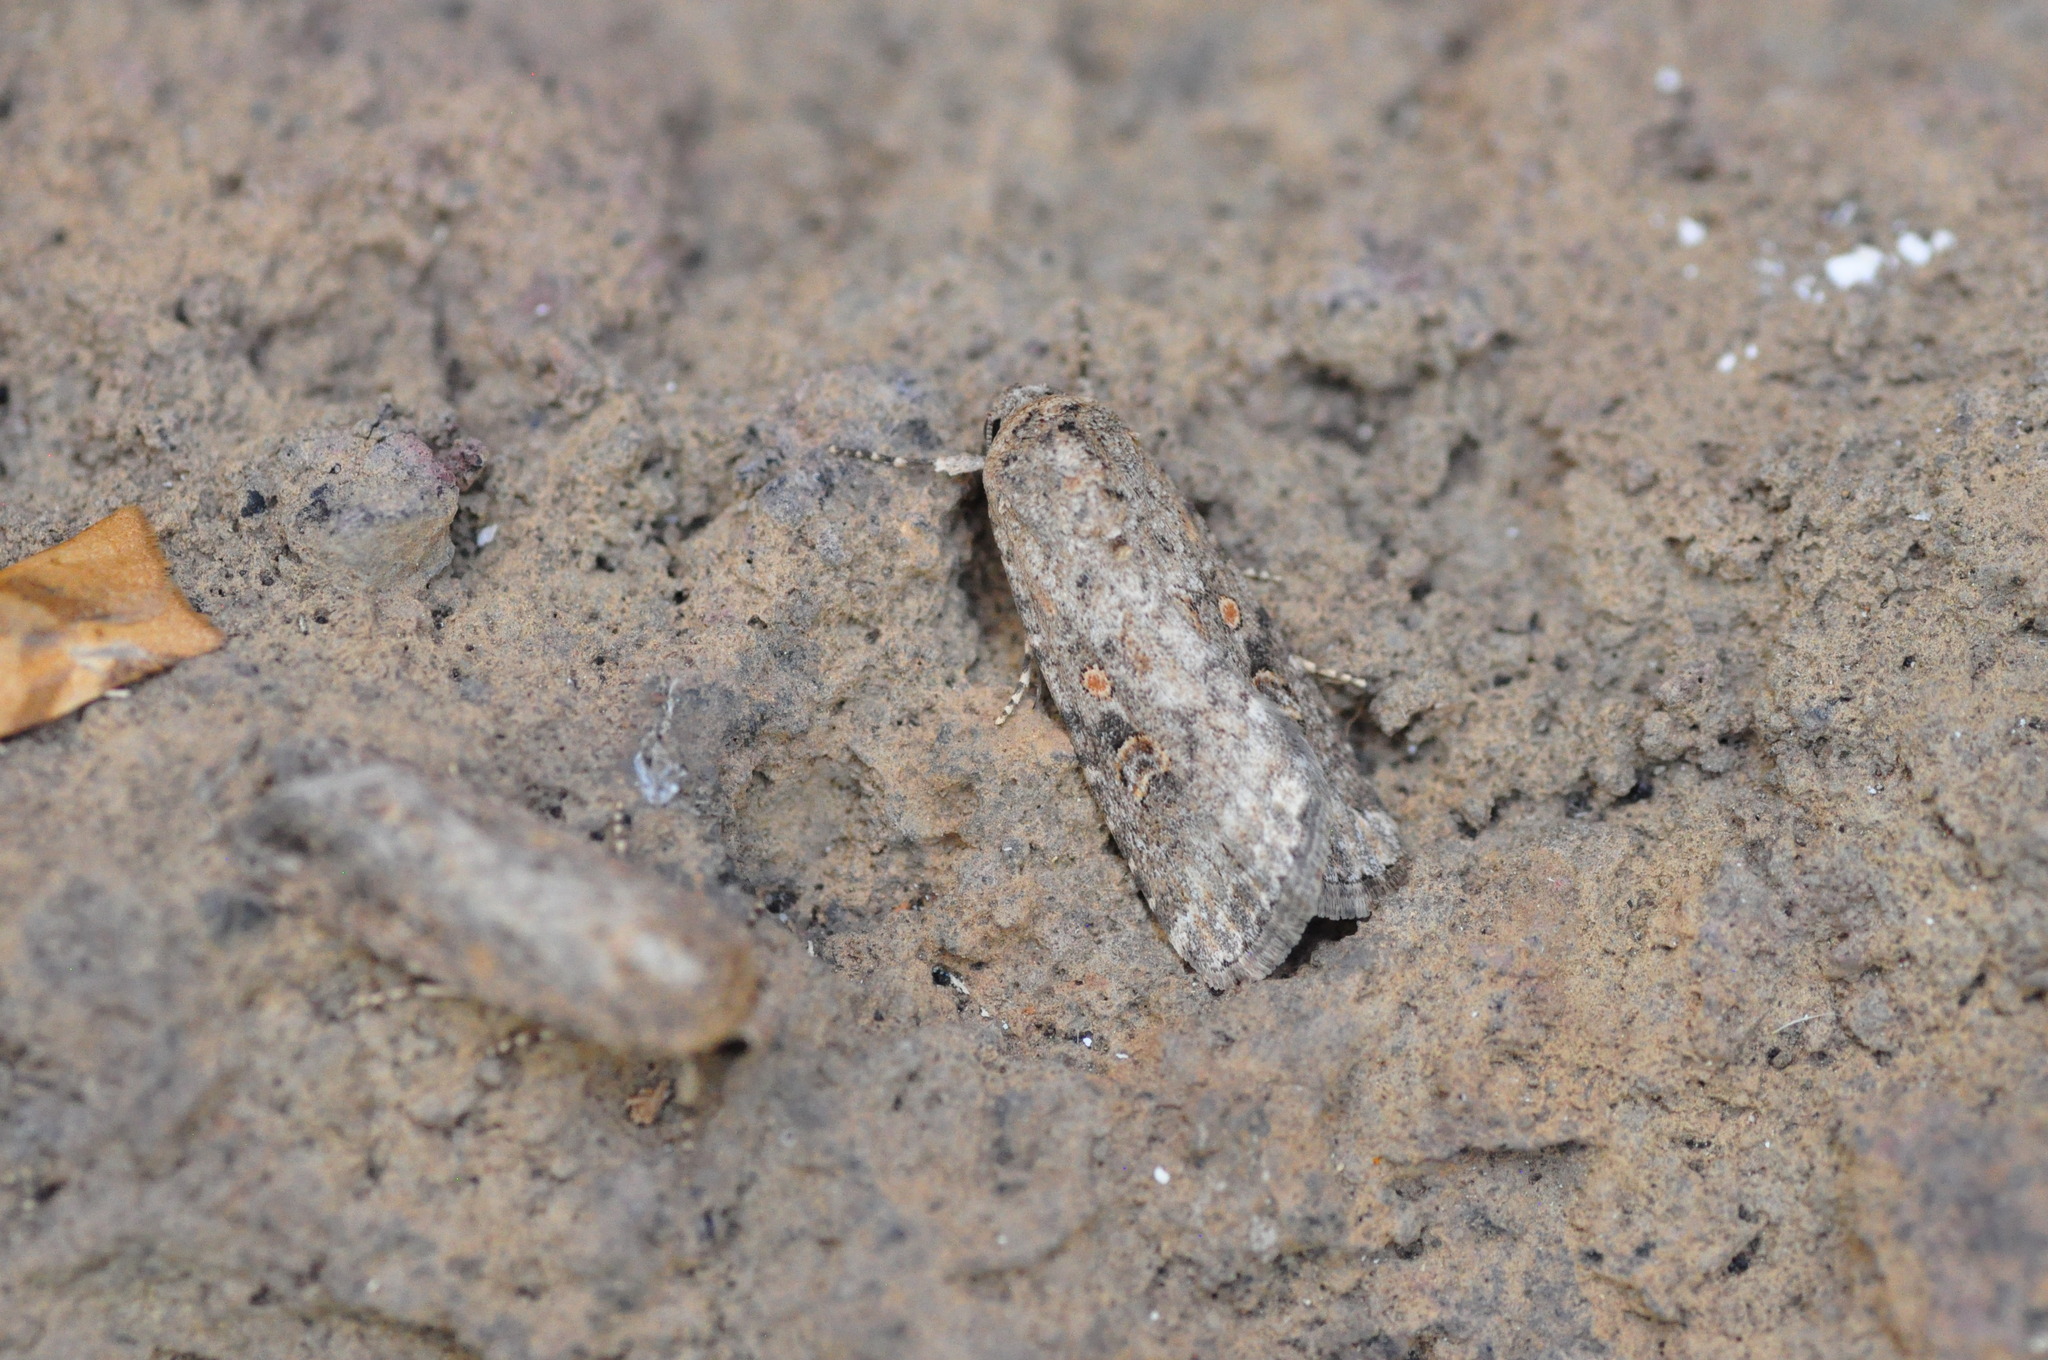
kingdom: Animalia
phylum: Arthropoda
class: Insecta
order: Lepidoptera
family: Noctuidae
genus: Spodoptera
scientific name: Spodoptera exigua
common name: Beet armyworm
